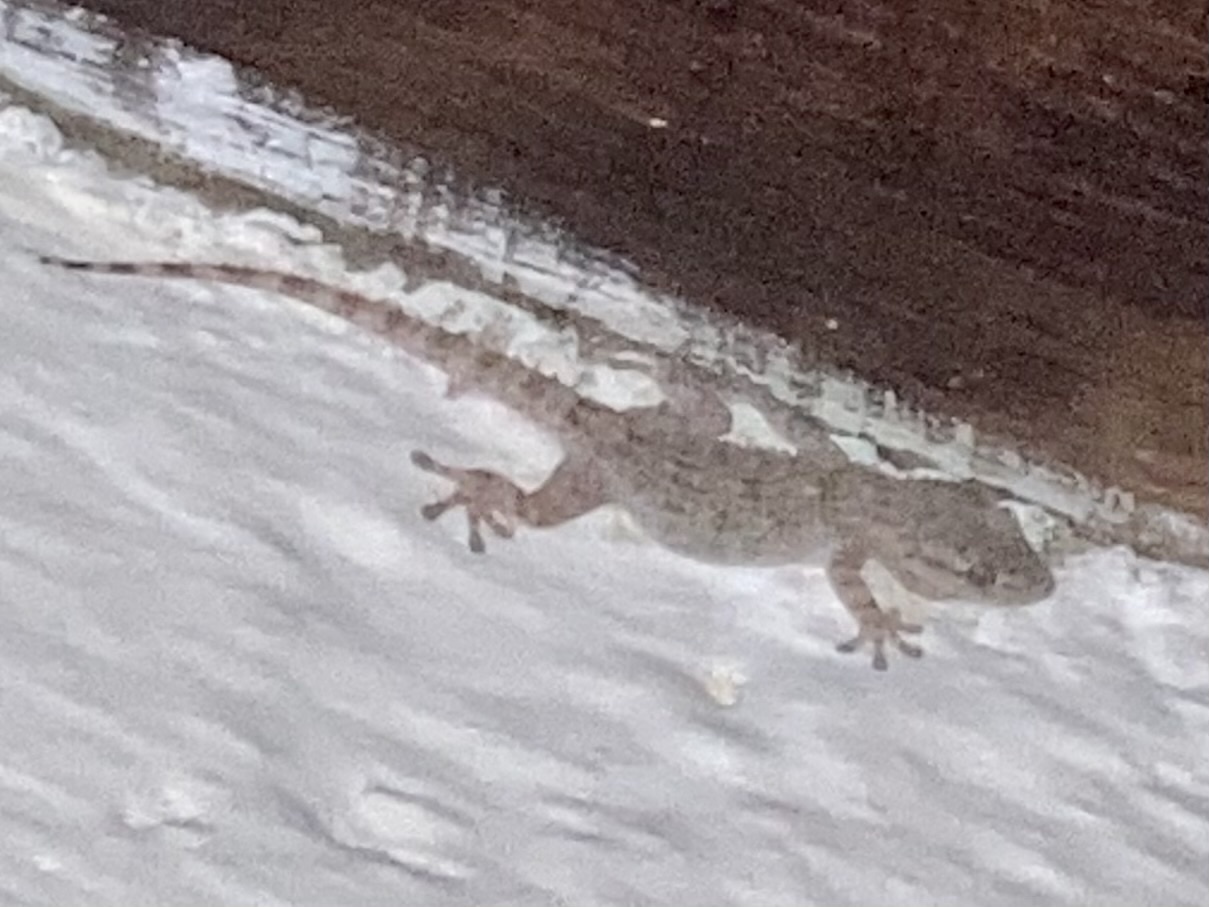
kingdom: Animalia
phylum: Chordata
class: Squamata
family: Phyllodactylidae
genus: Tarentola
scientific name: Tarentola mauritanica
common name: Moorish gecko
